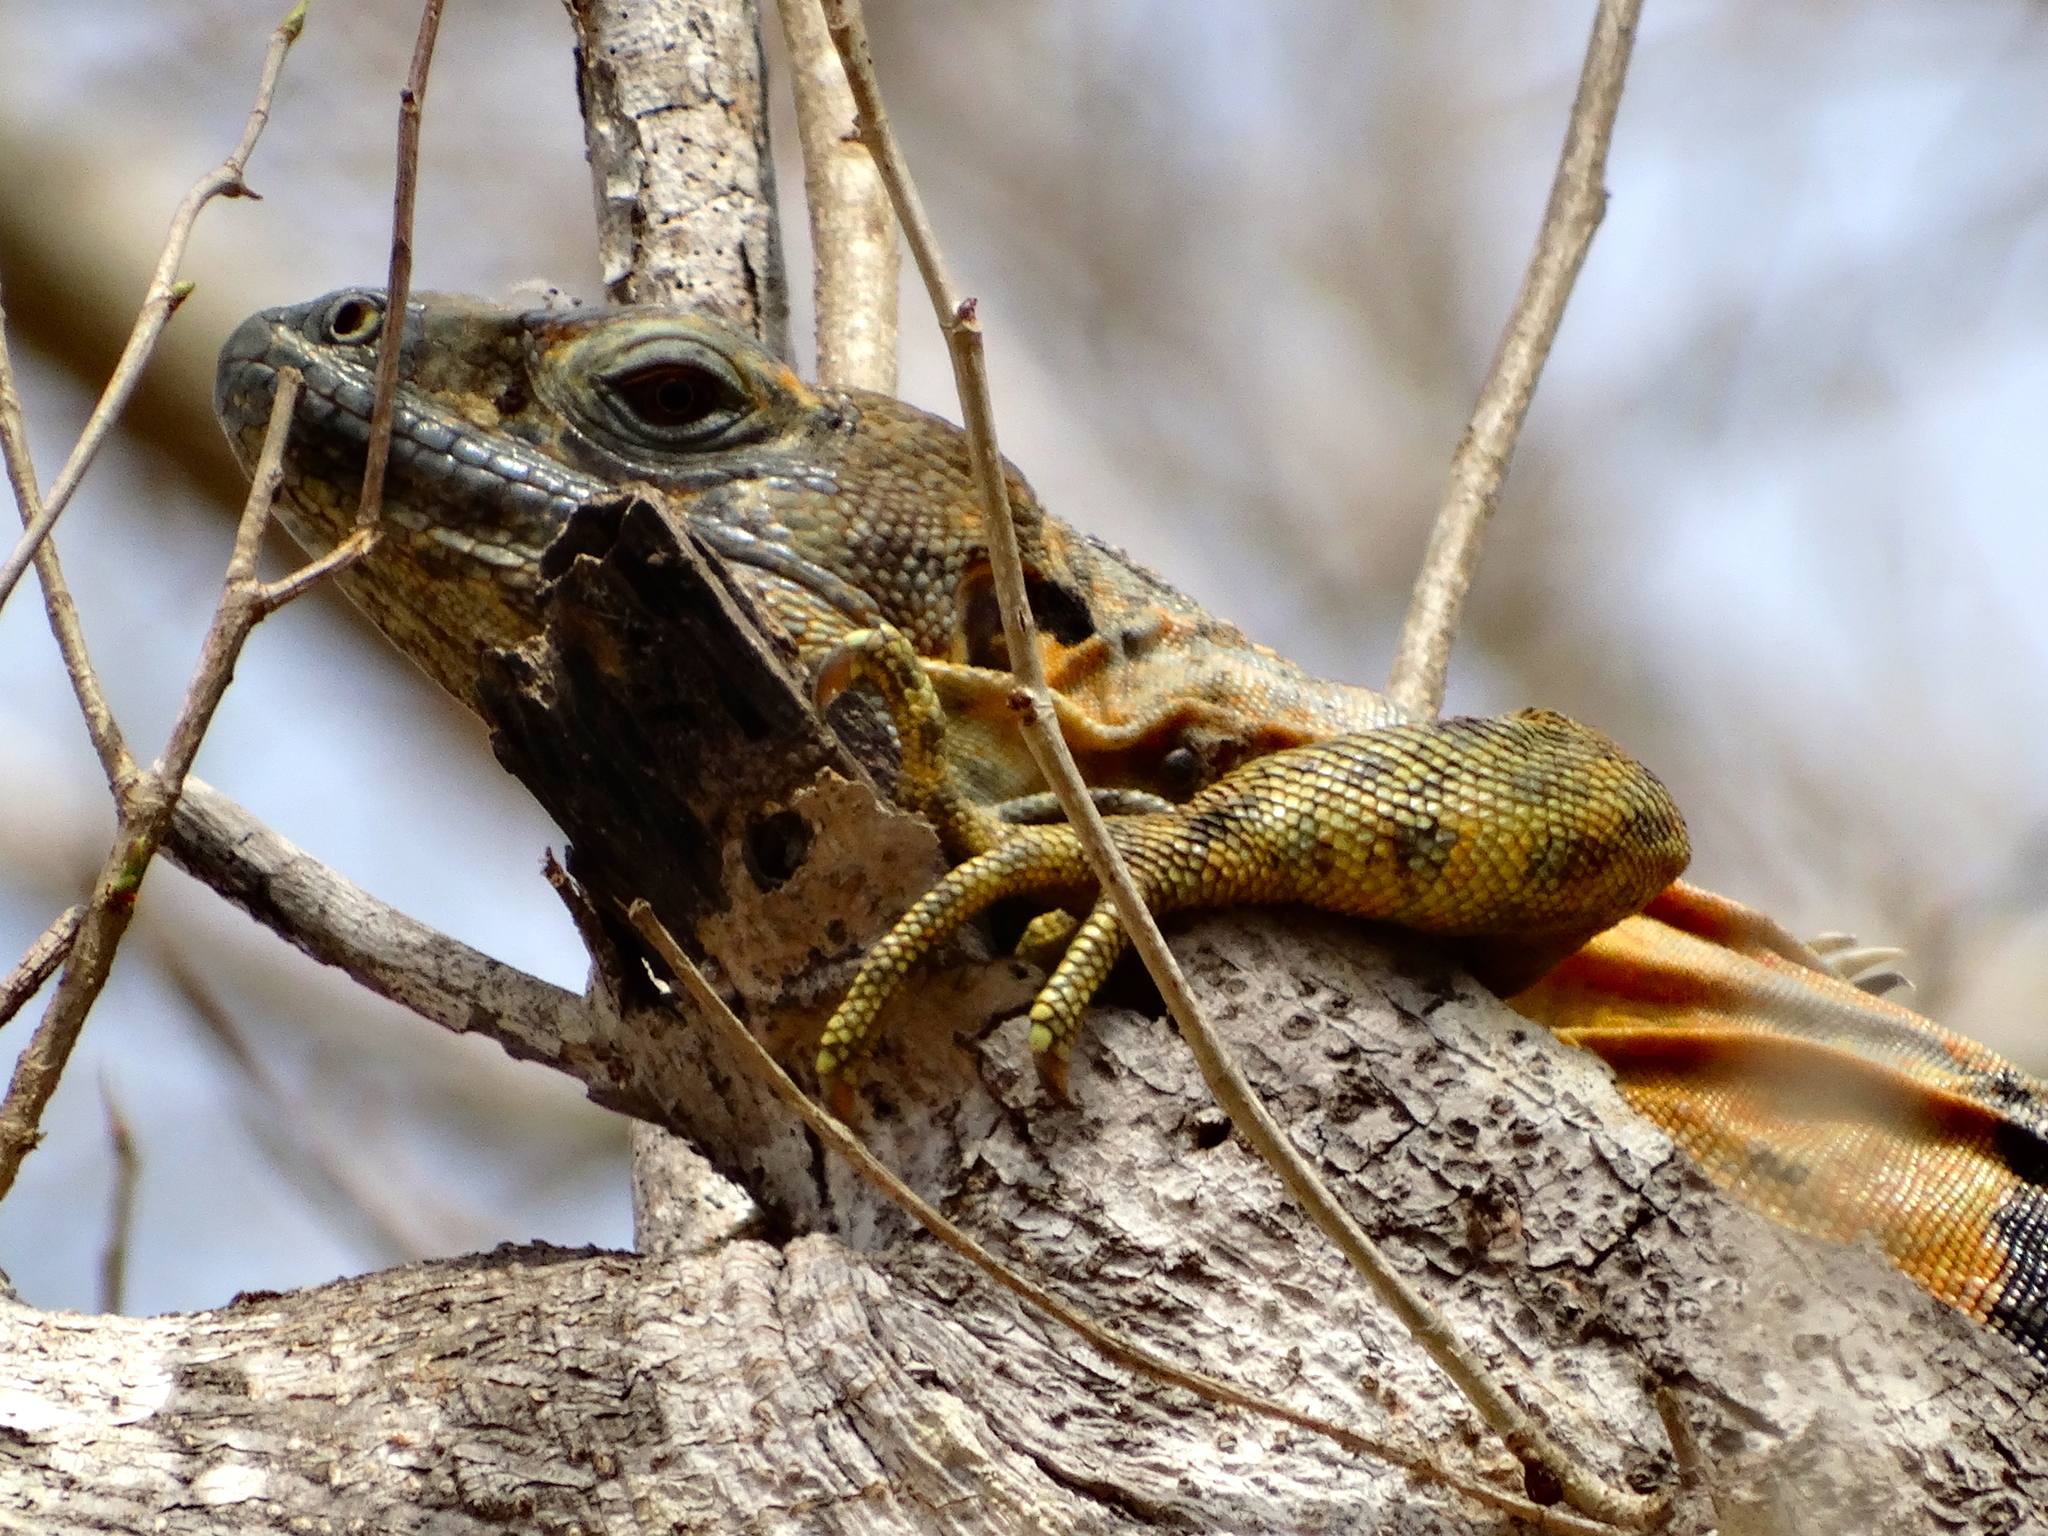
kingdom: Animalia
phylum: Chordata
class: Squamata
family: Iguanidae
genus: Ctenosaura
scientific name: Ctenosaura pectinata
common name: Guerreran spiny-tailed iguana
